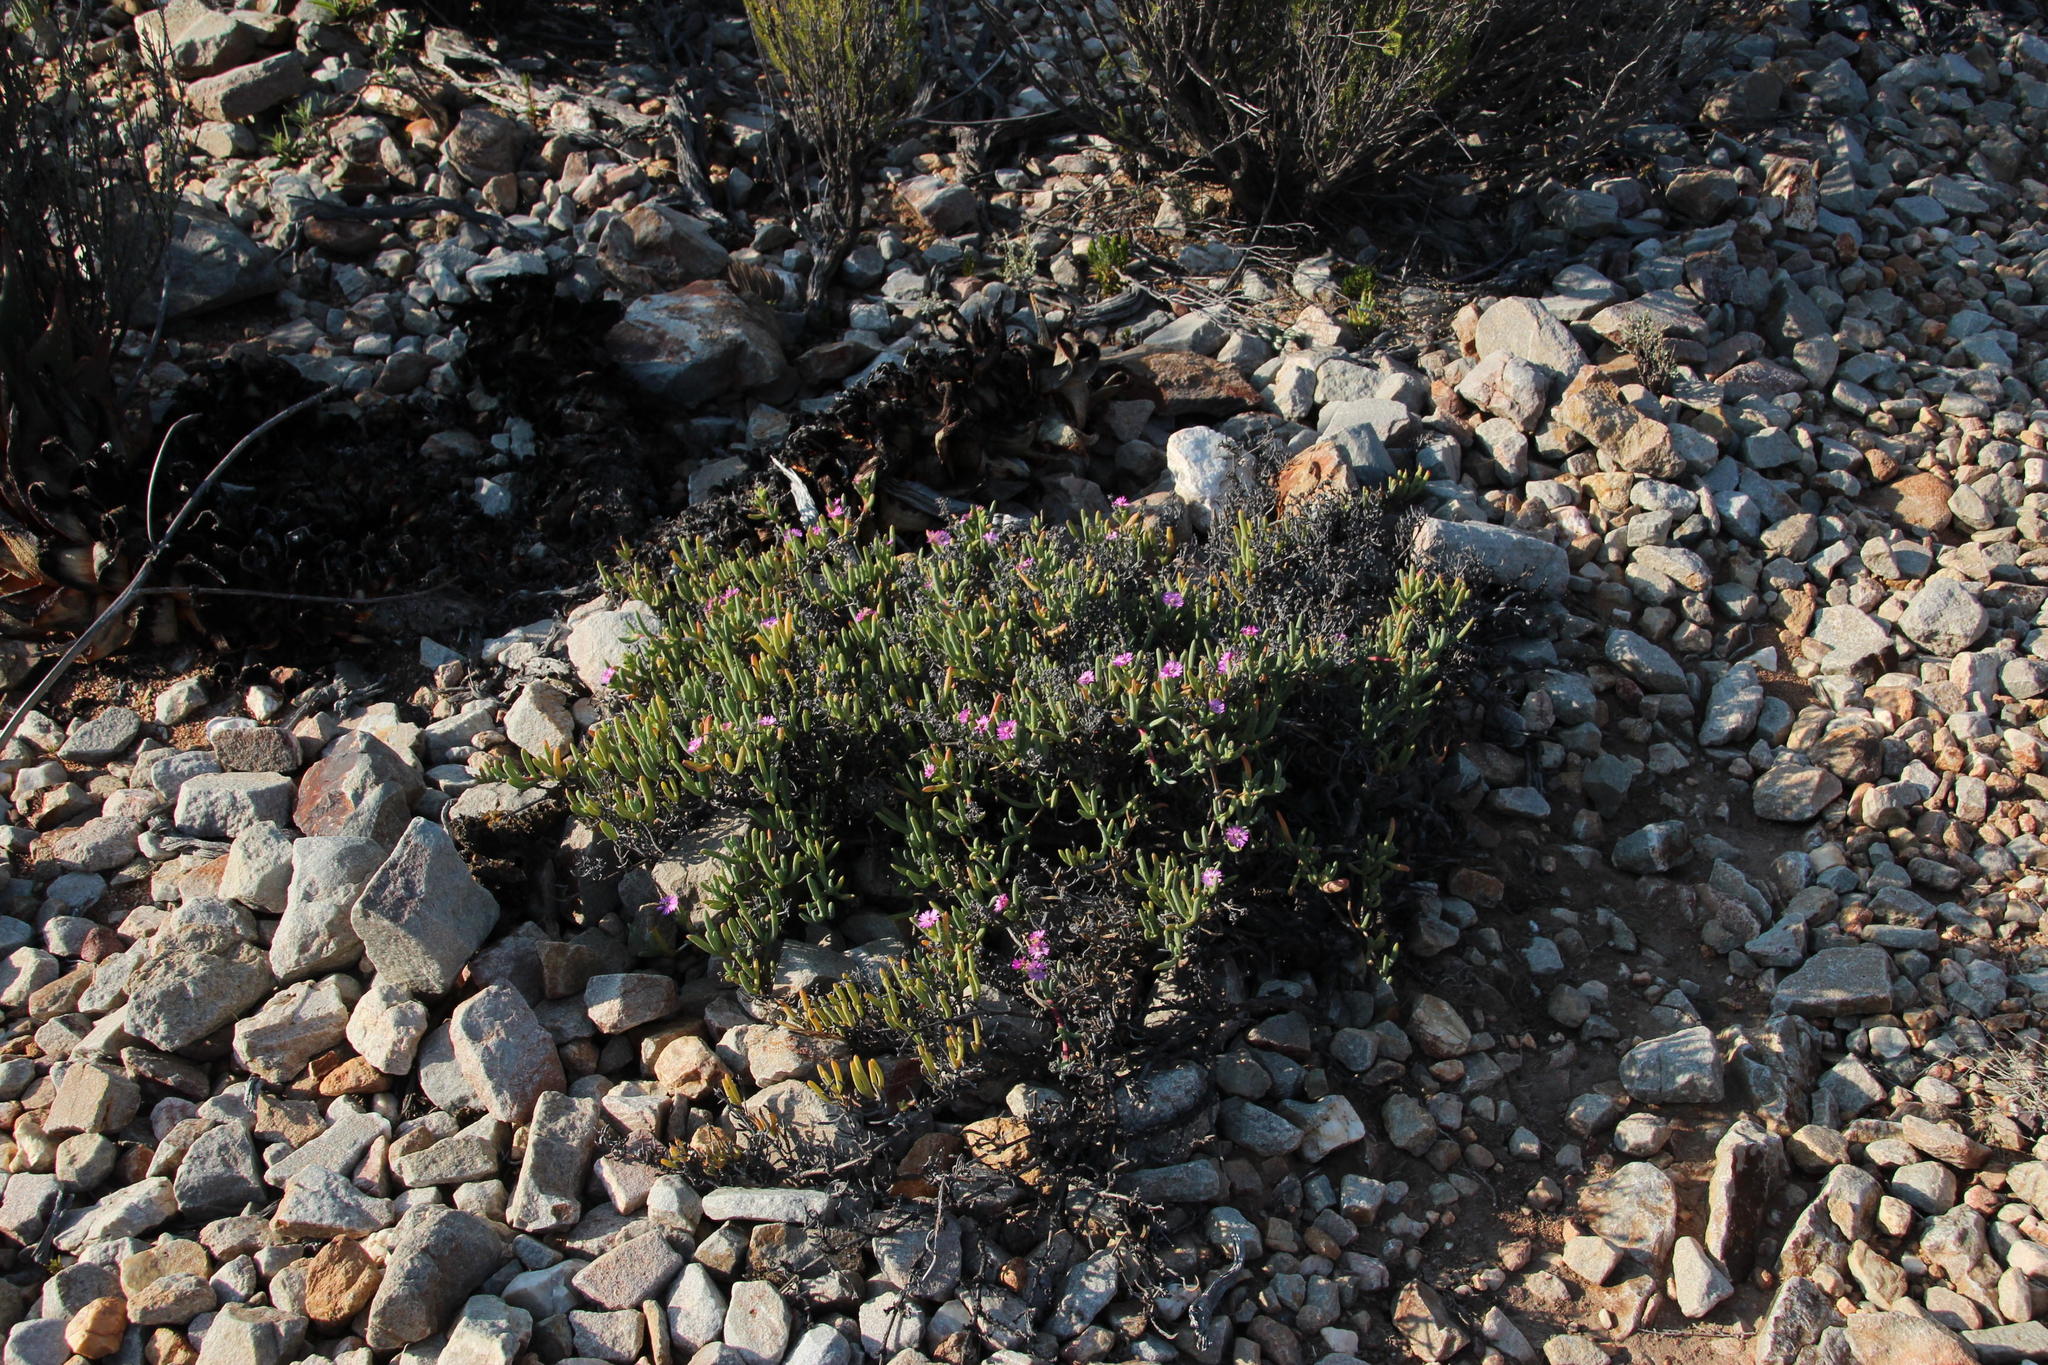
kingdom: Plantae
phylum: Tracheophyta
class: Magnoliopsida
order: Caryophyllales
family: Aizoaceae
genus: Ruschia
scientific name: Ruschia caroli
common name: Shrubby dewplant
